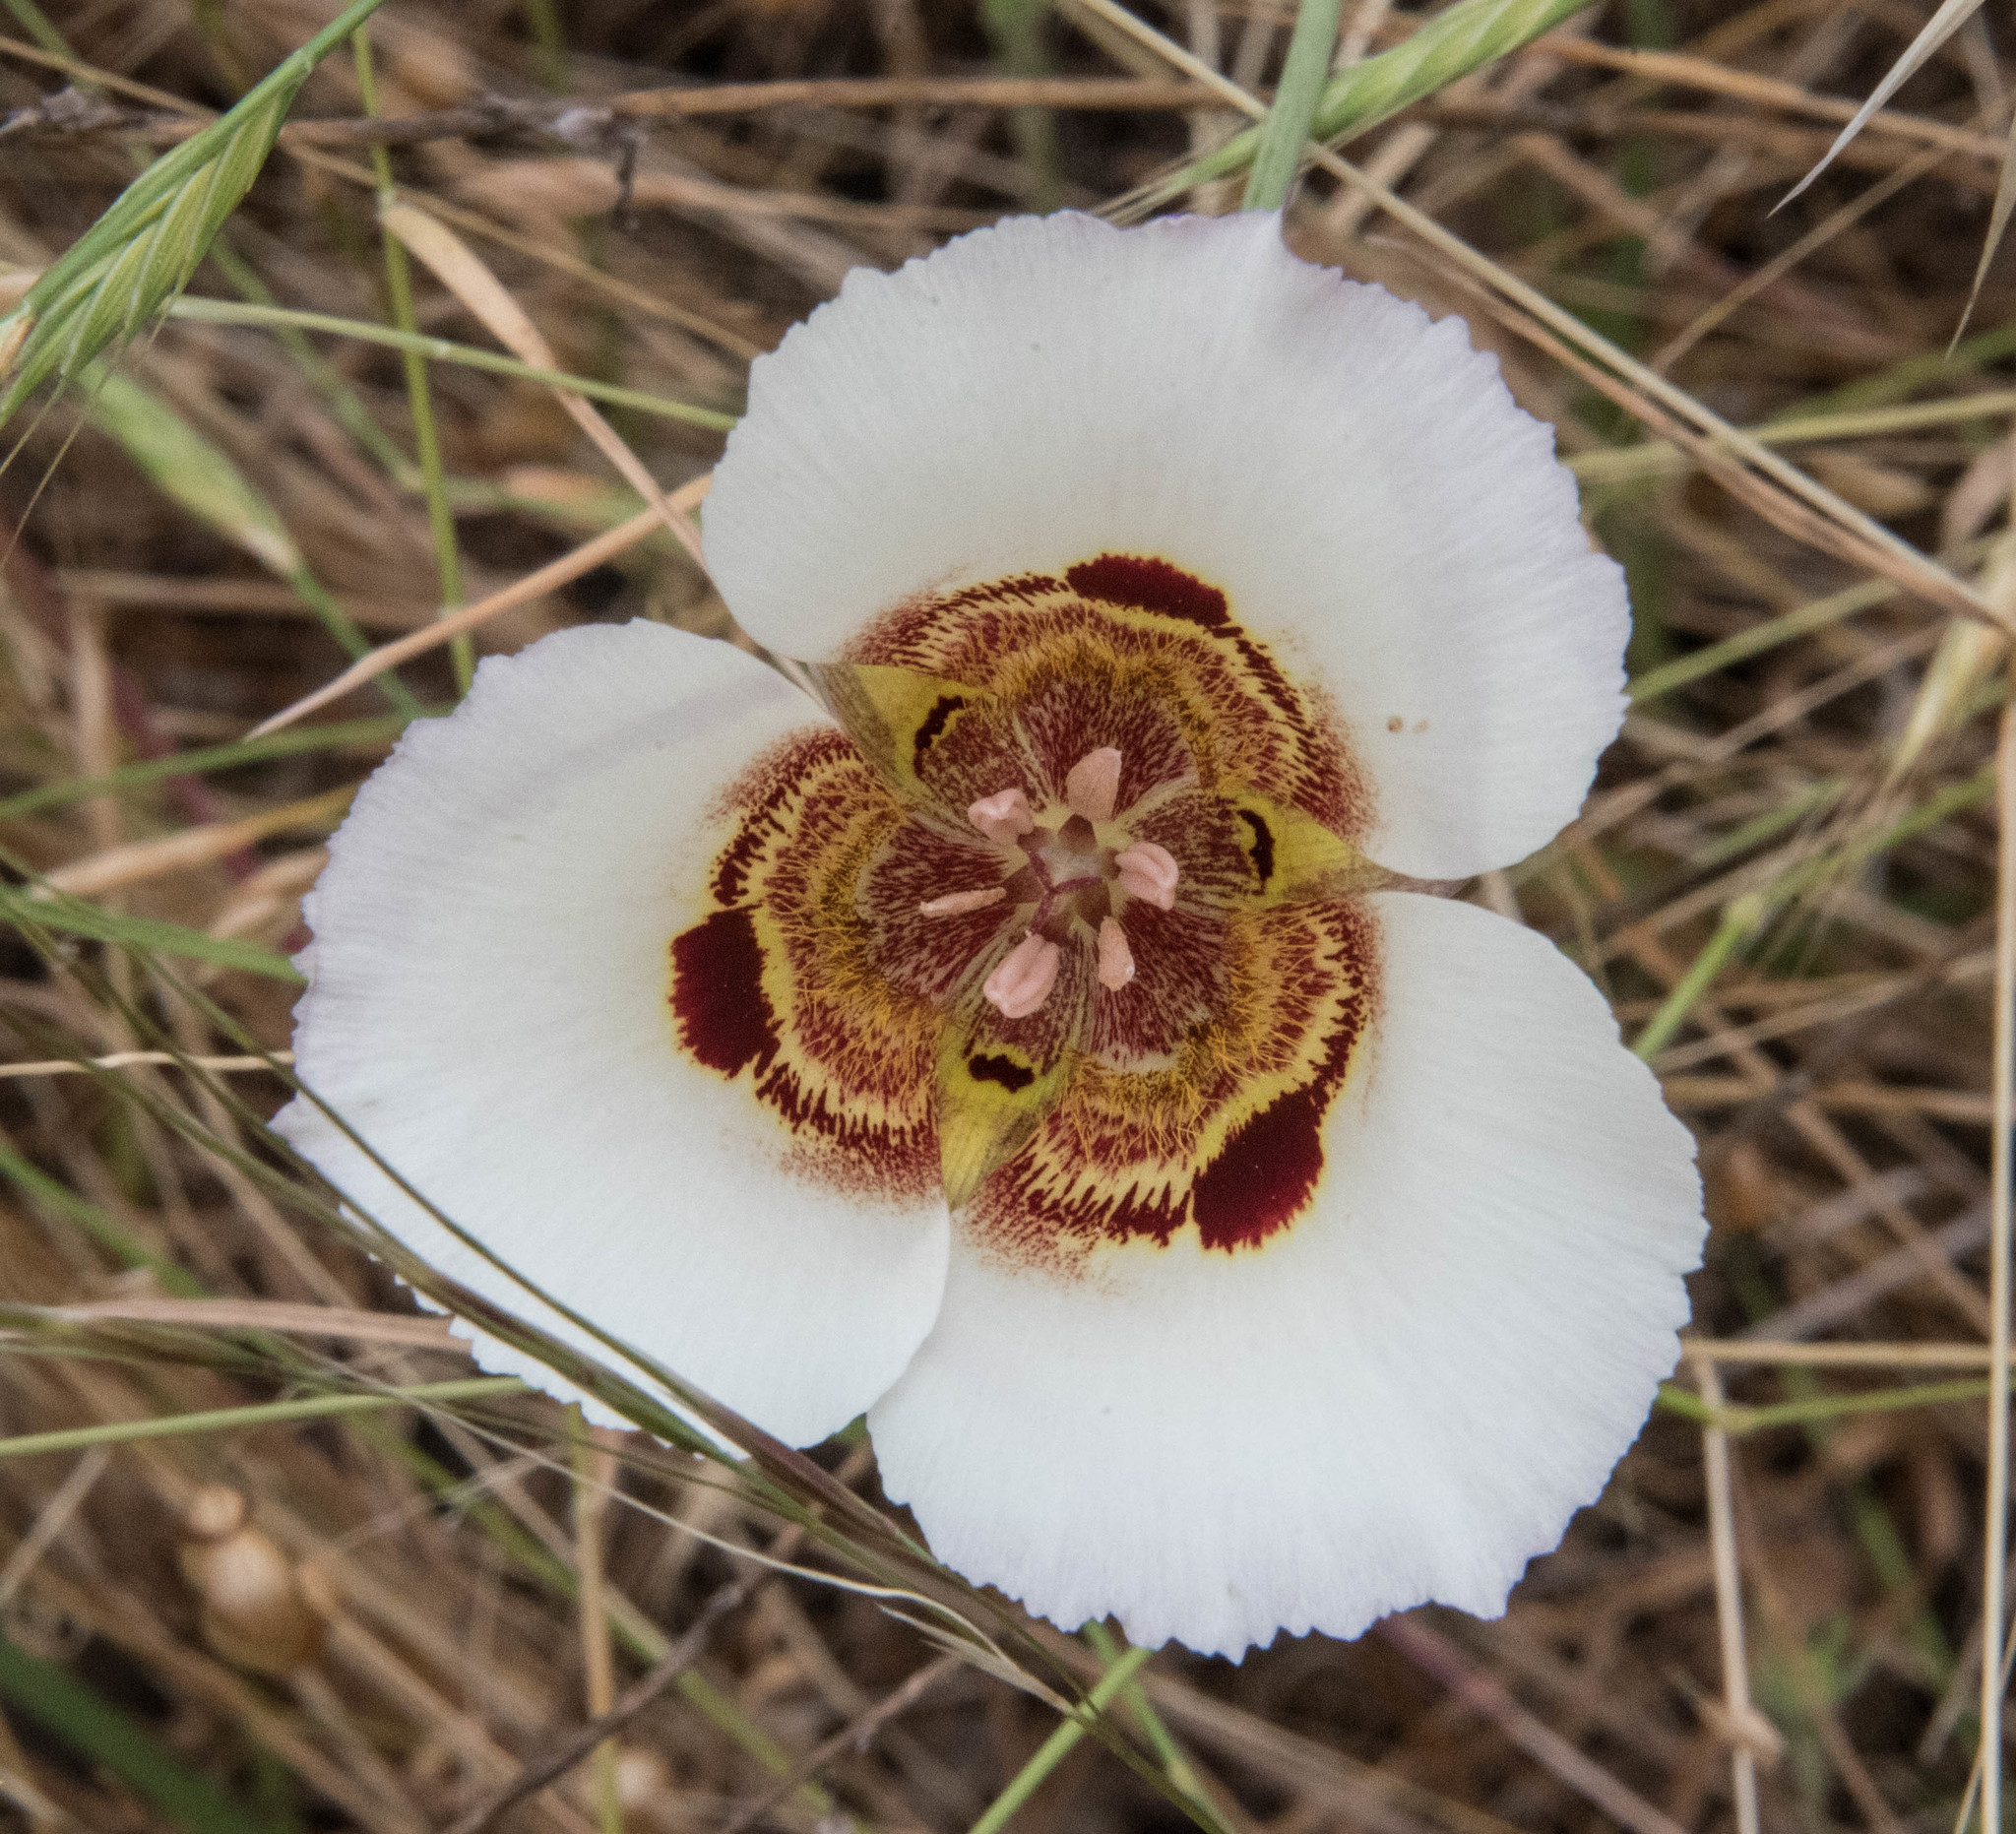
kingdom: Plantae
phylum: Tracheophyta
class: Liliopsida
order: Liliales
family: Liliaceae
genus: Calochortus
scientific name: Calochortus vestae
